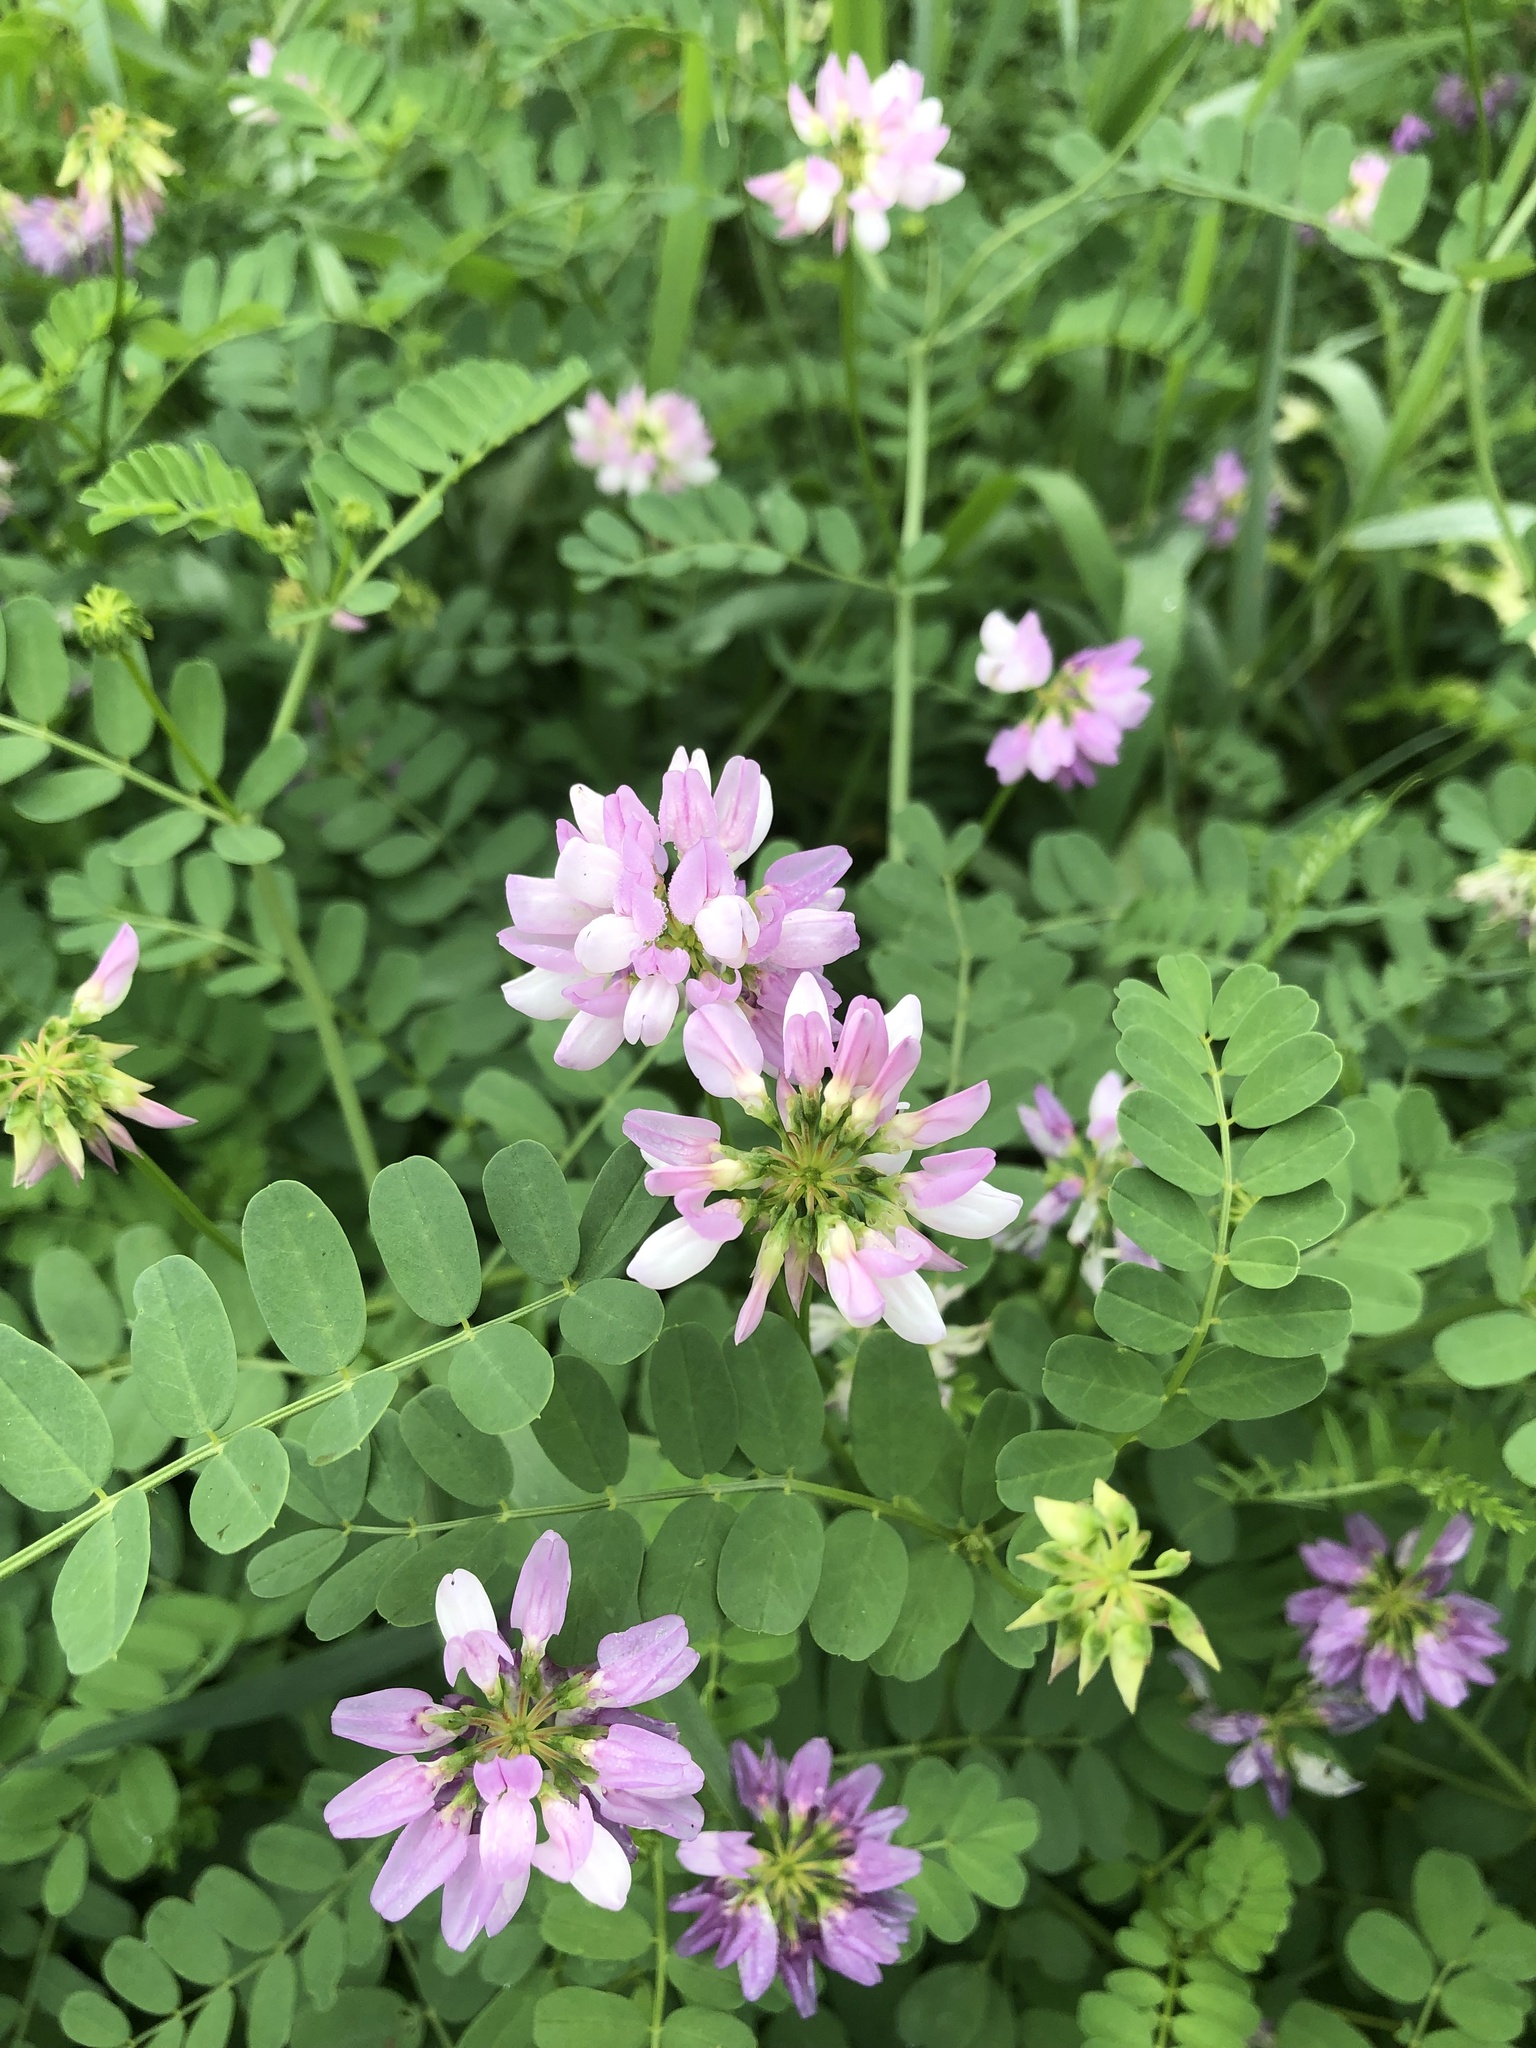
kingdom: Plantae
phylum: Tracheophyta
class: Magnoliopsida
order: Fabales
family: Fabaceae
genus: Coronilla
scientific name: Coronilla varia
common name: Crownvetch
